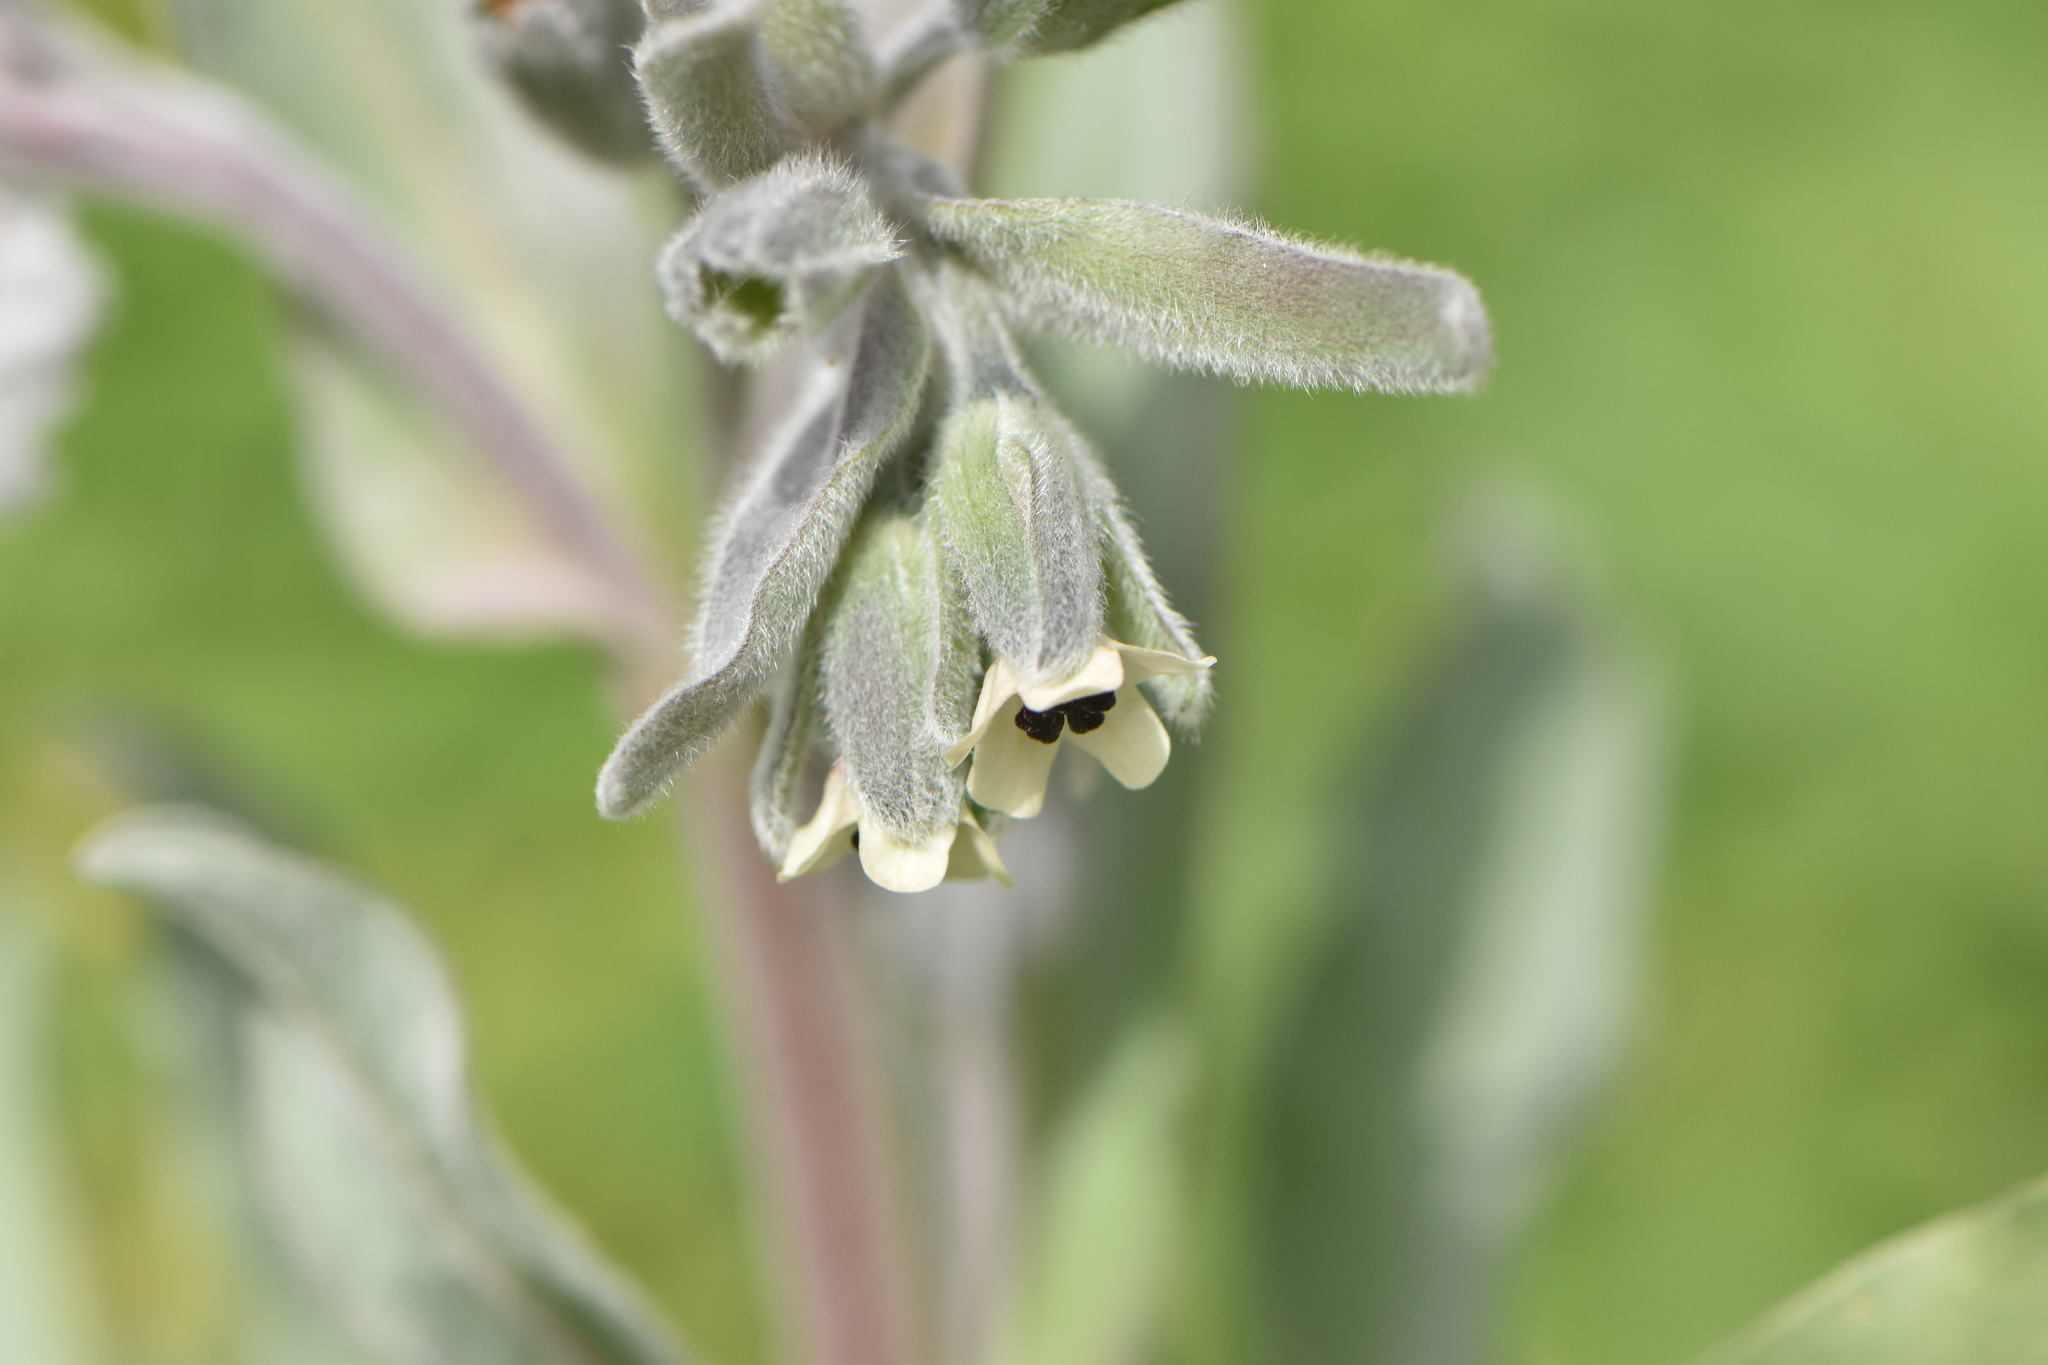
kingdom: Plantae
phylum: Tracheophyta
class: Magnoliopsida
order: Boraginales
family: Boraginaceae
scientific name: Boraginaceae
